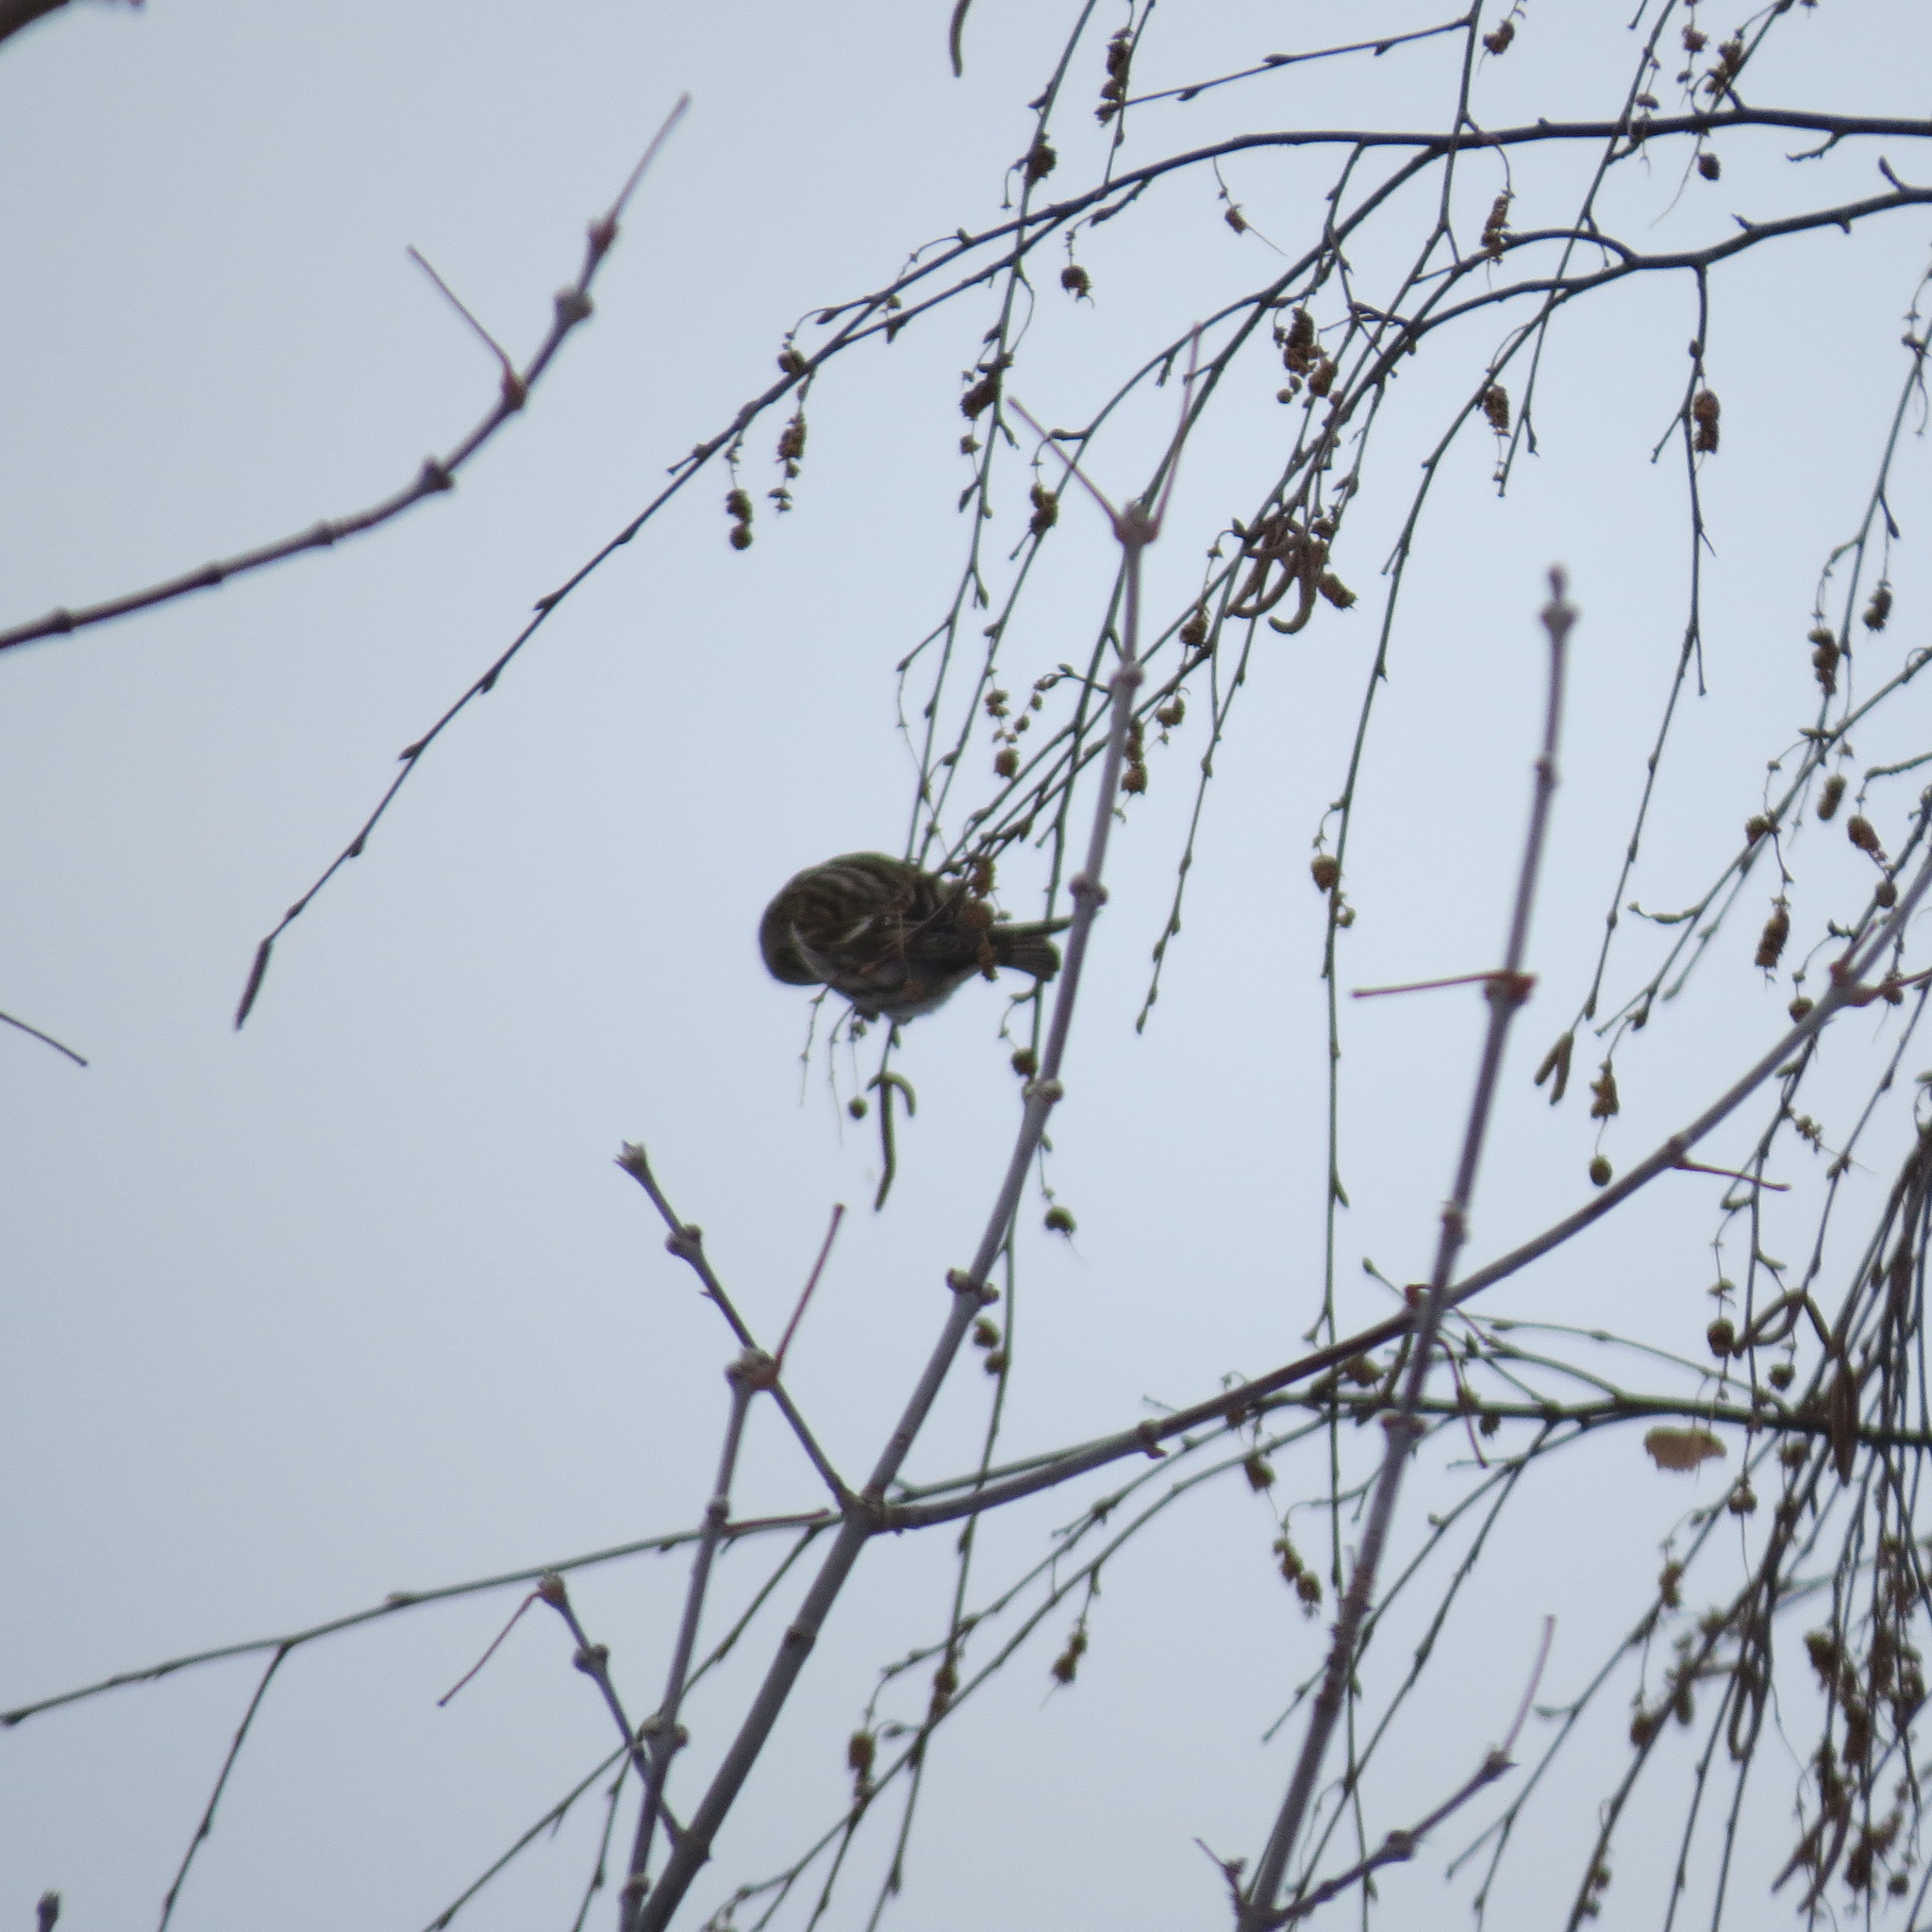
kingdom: Animalia
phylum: Chordata
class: Aves
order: Passeriformes
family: Fringillidae
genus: Acanthis
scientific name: Acanthis flammea
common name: Common redpoll
